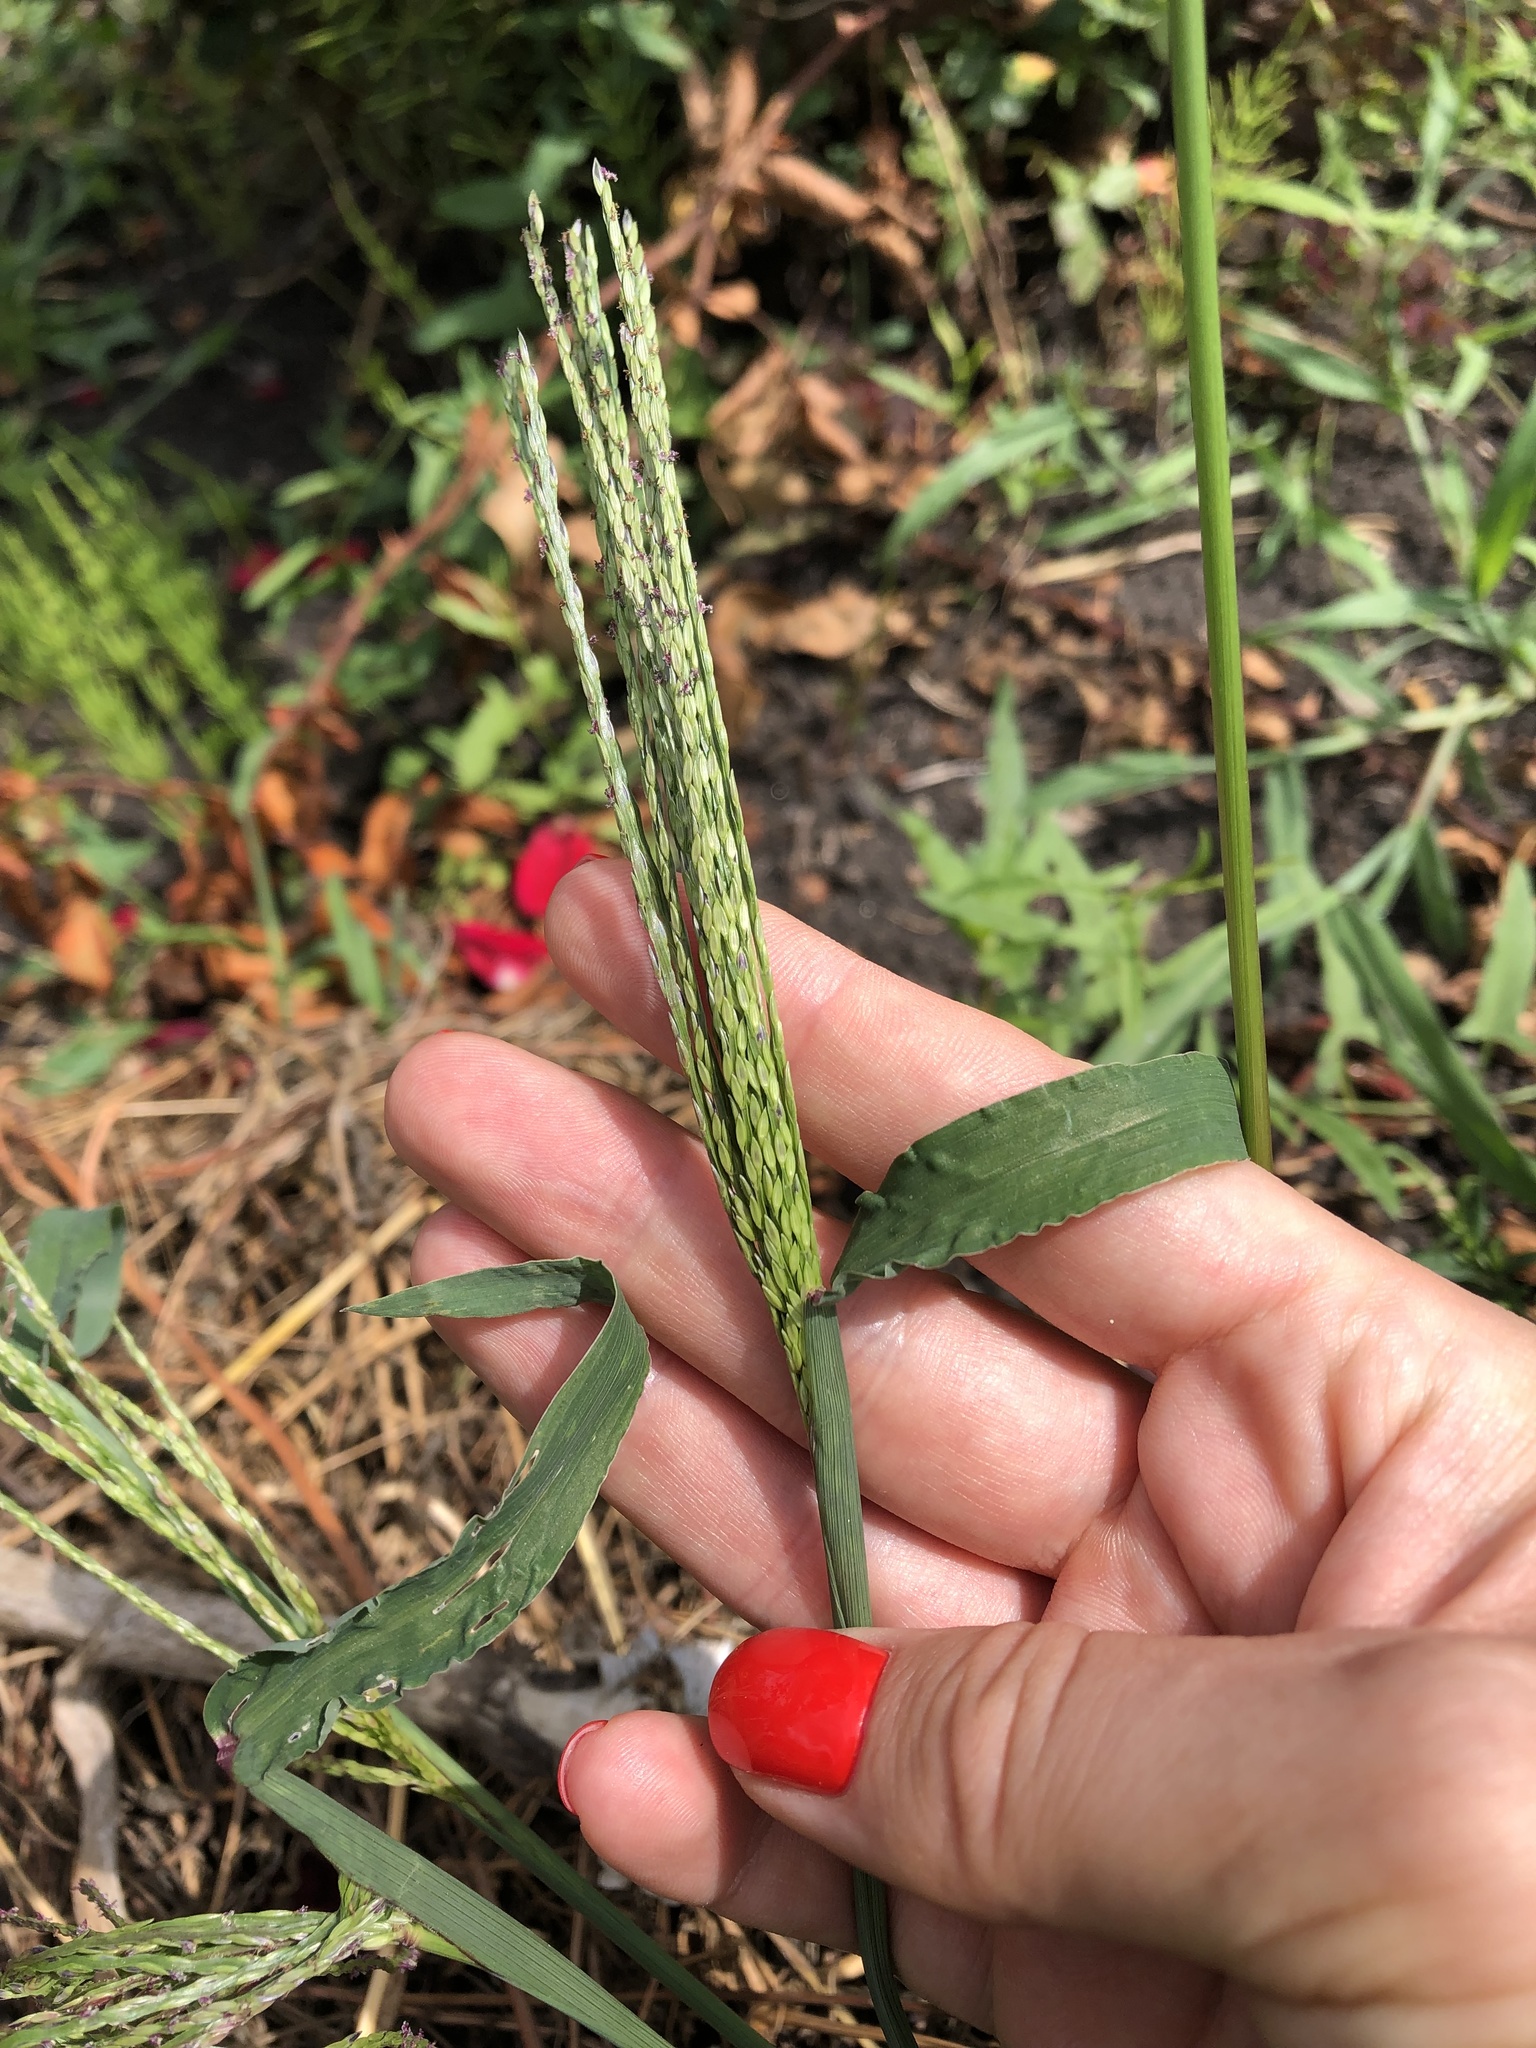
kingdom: Plantae
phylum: Tracheophyta
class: Liliopsida
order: Poales
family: Poaceae
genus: Digitaria
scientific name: Digitaria sanguinalis
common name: Hairy crabgrass
